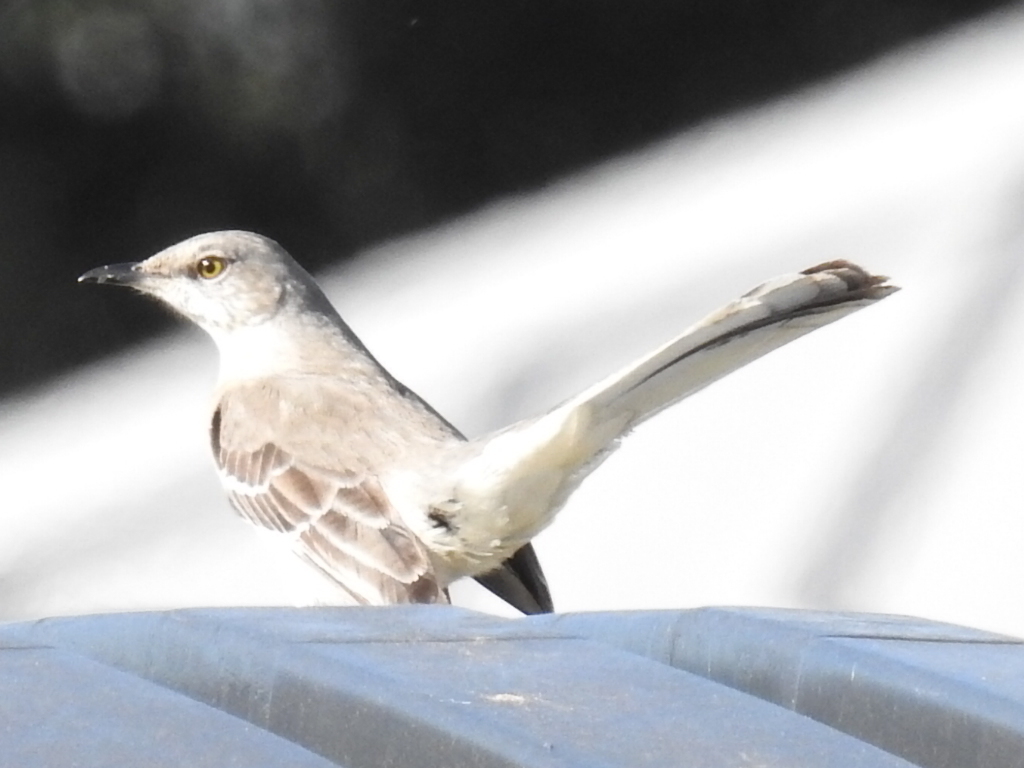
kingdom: Animalia
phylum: Chordata
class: Aves
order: Passeriformes
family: Mimidae
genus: Mimus
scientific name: Mimus polyglottos
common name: Northern mockingbird
